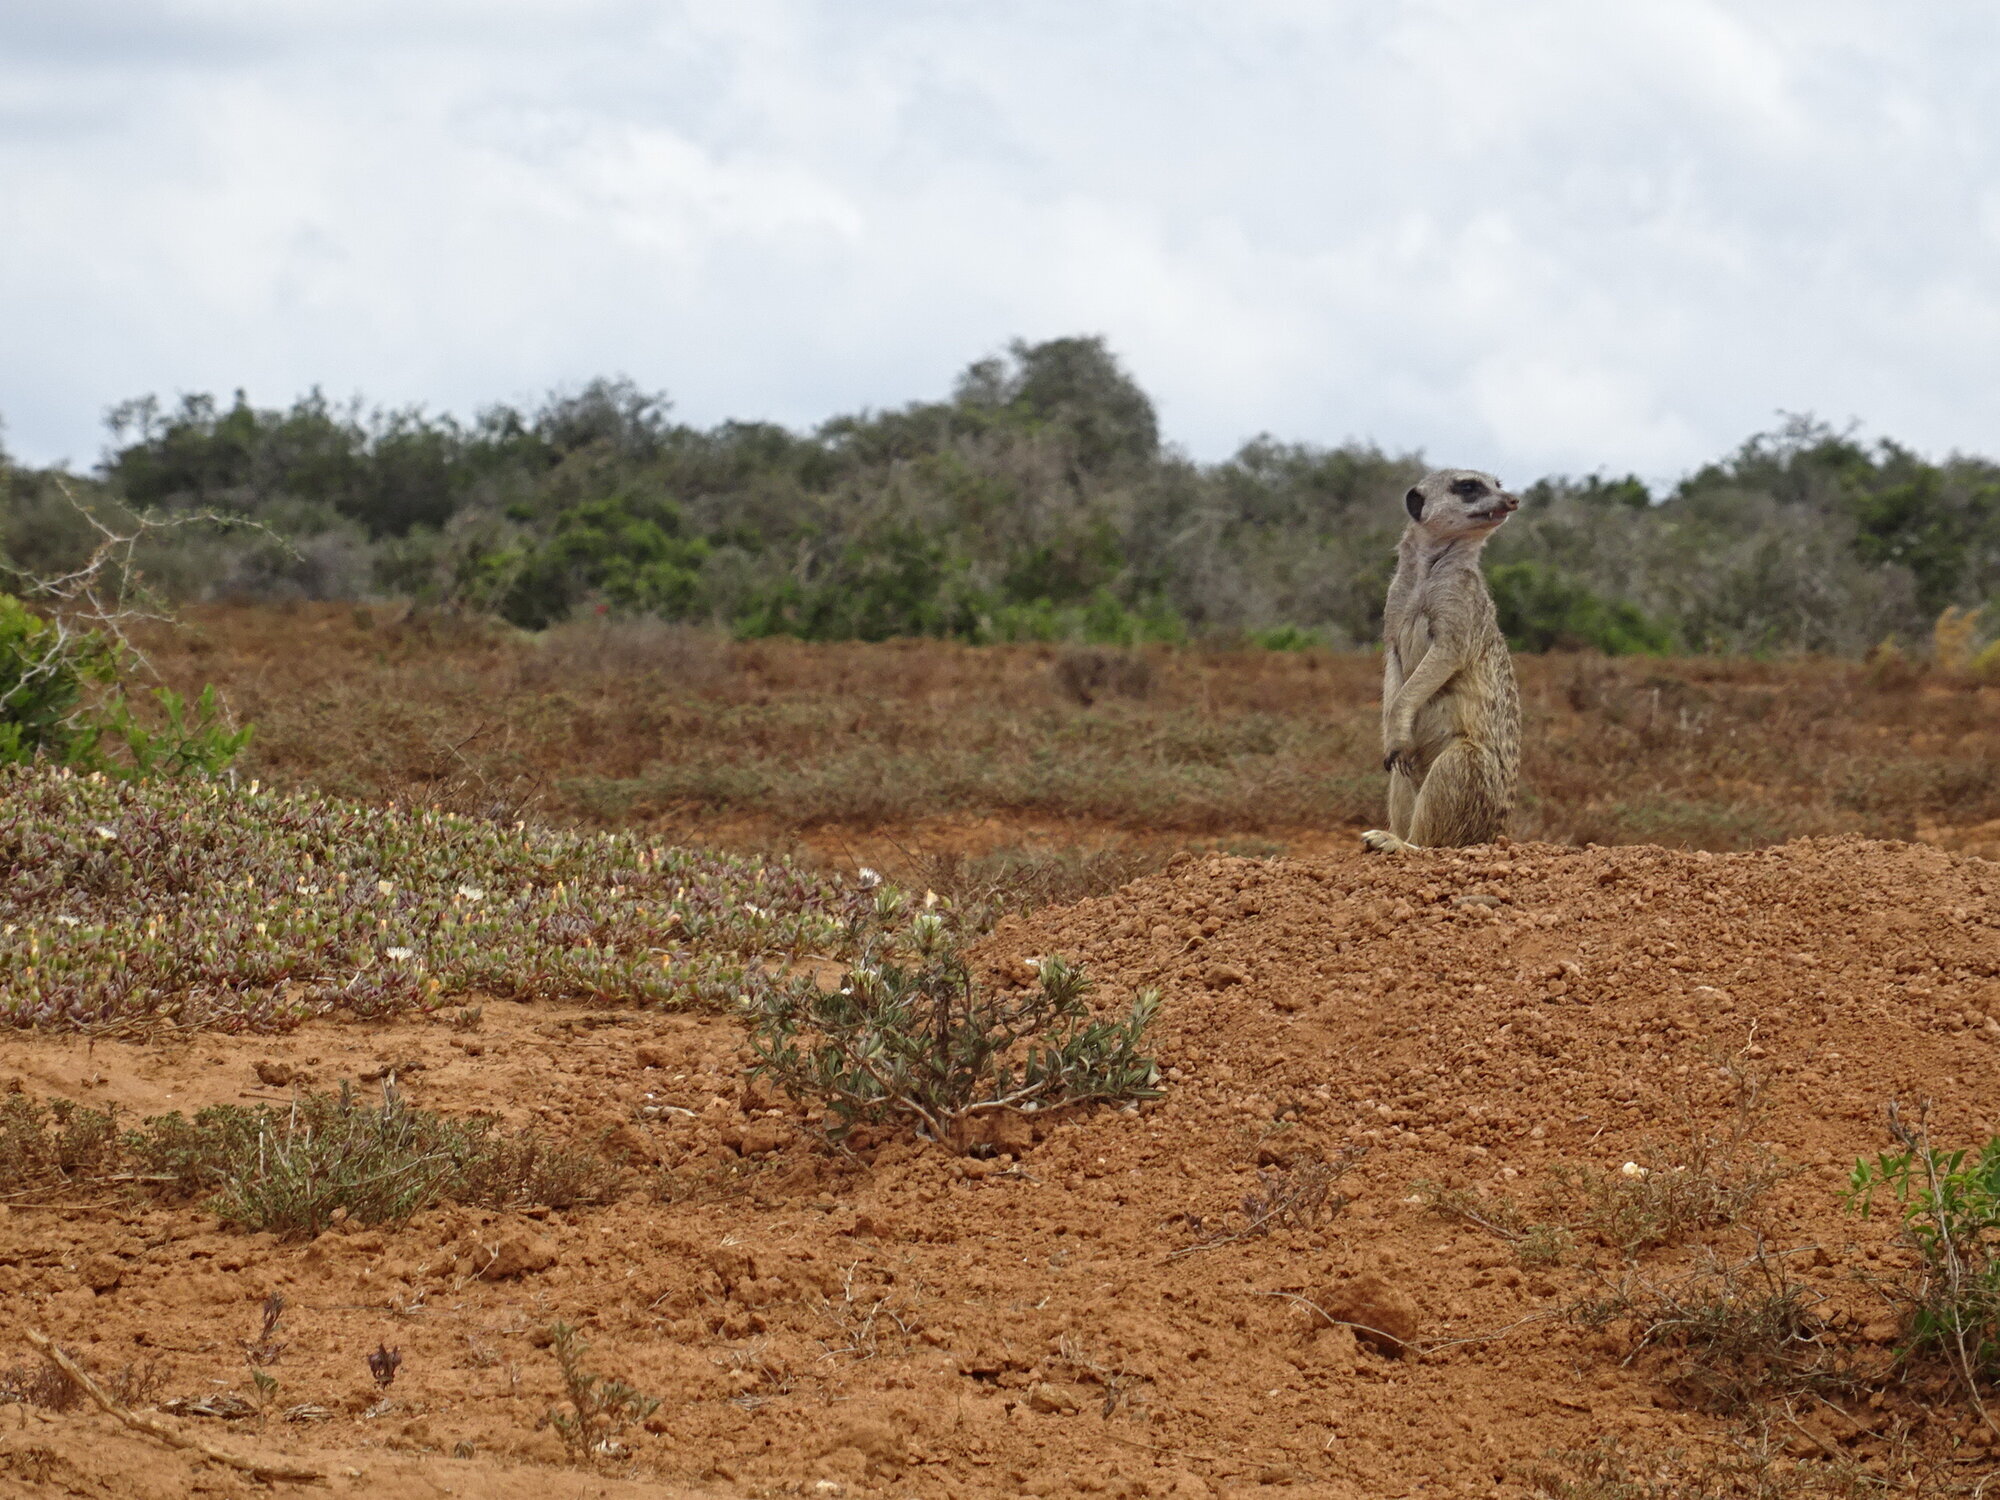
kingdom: Animalia
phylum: Chordata
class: Mammalia
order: Carnivora
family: Herpestidae
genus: Suricata
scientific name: Suricata suricatta
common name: Meerkat
